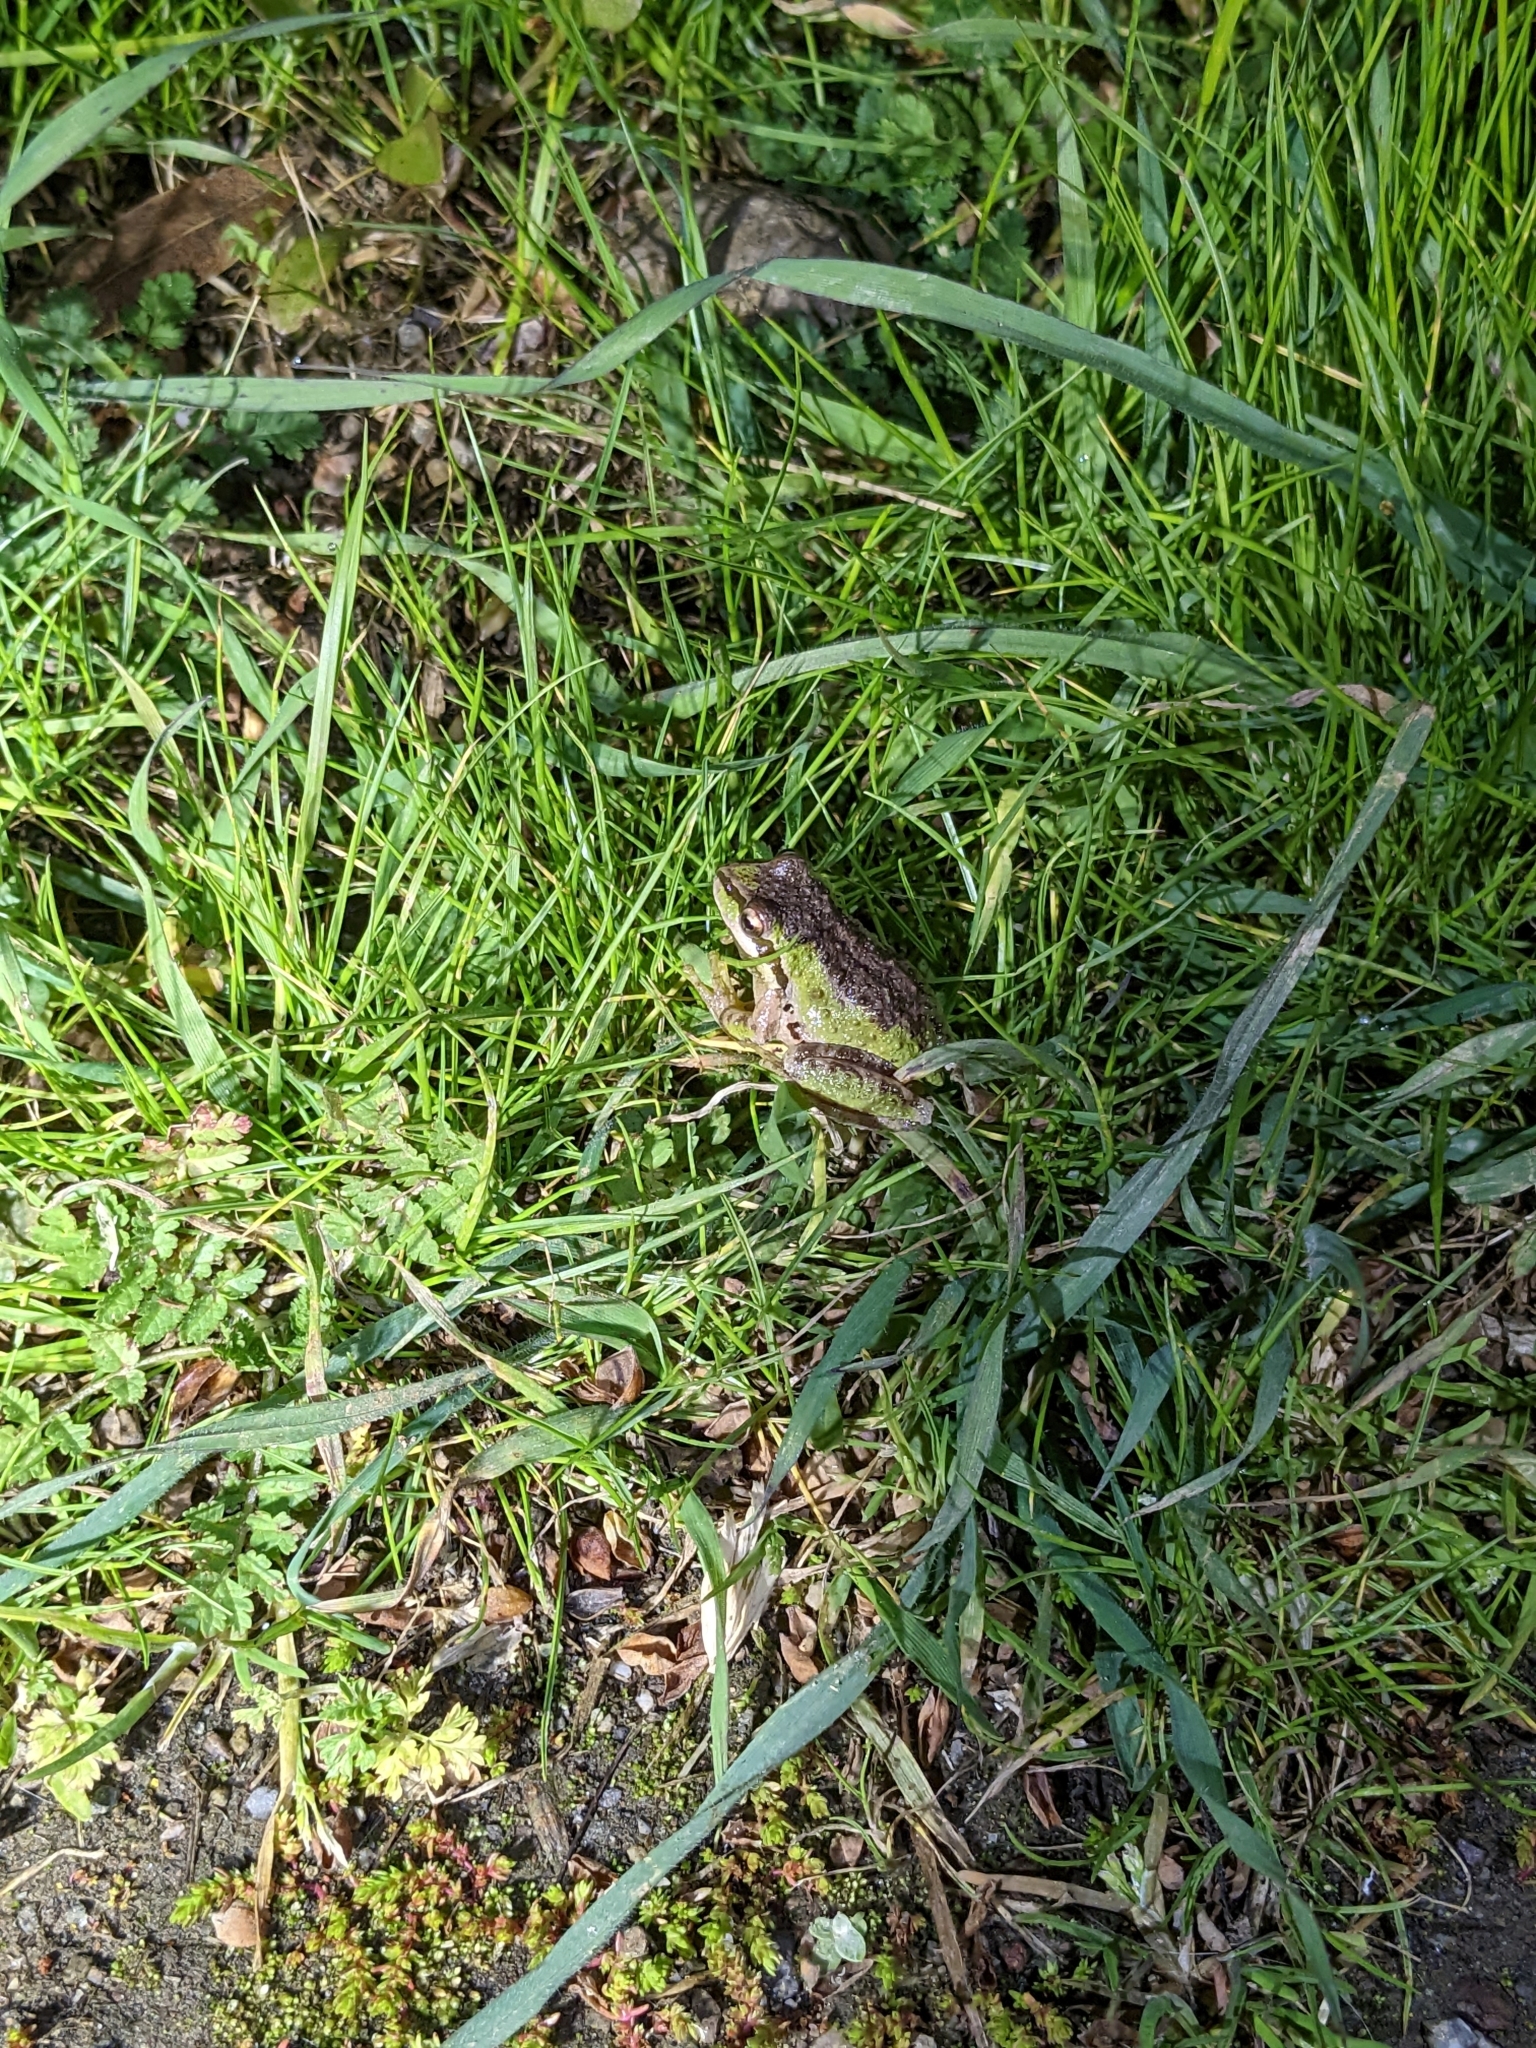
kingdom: Animalia
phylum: Chordata
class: Amphibia
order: Anura
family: Hylidae
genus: Pseudacris
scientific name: Pseudacris regilla
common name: Pacific chorus frog
